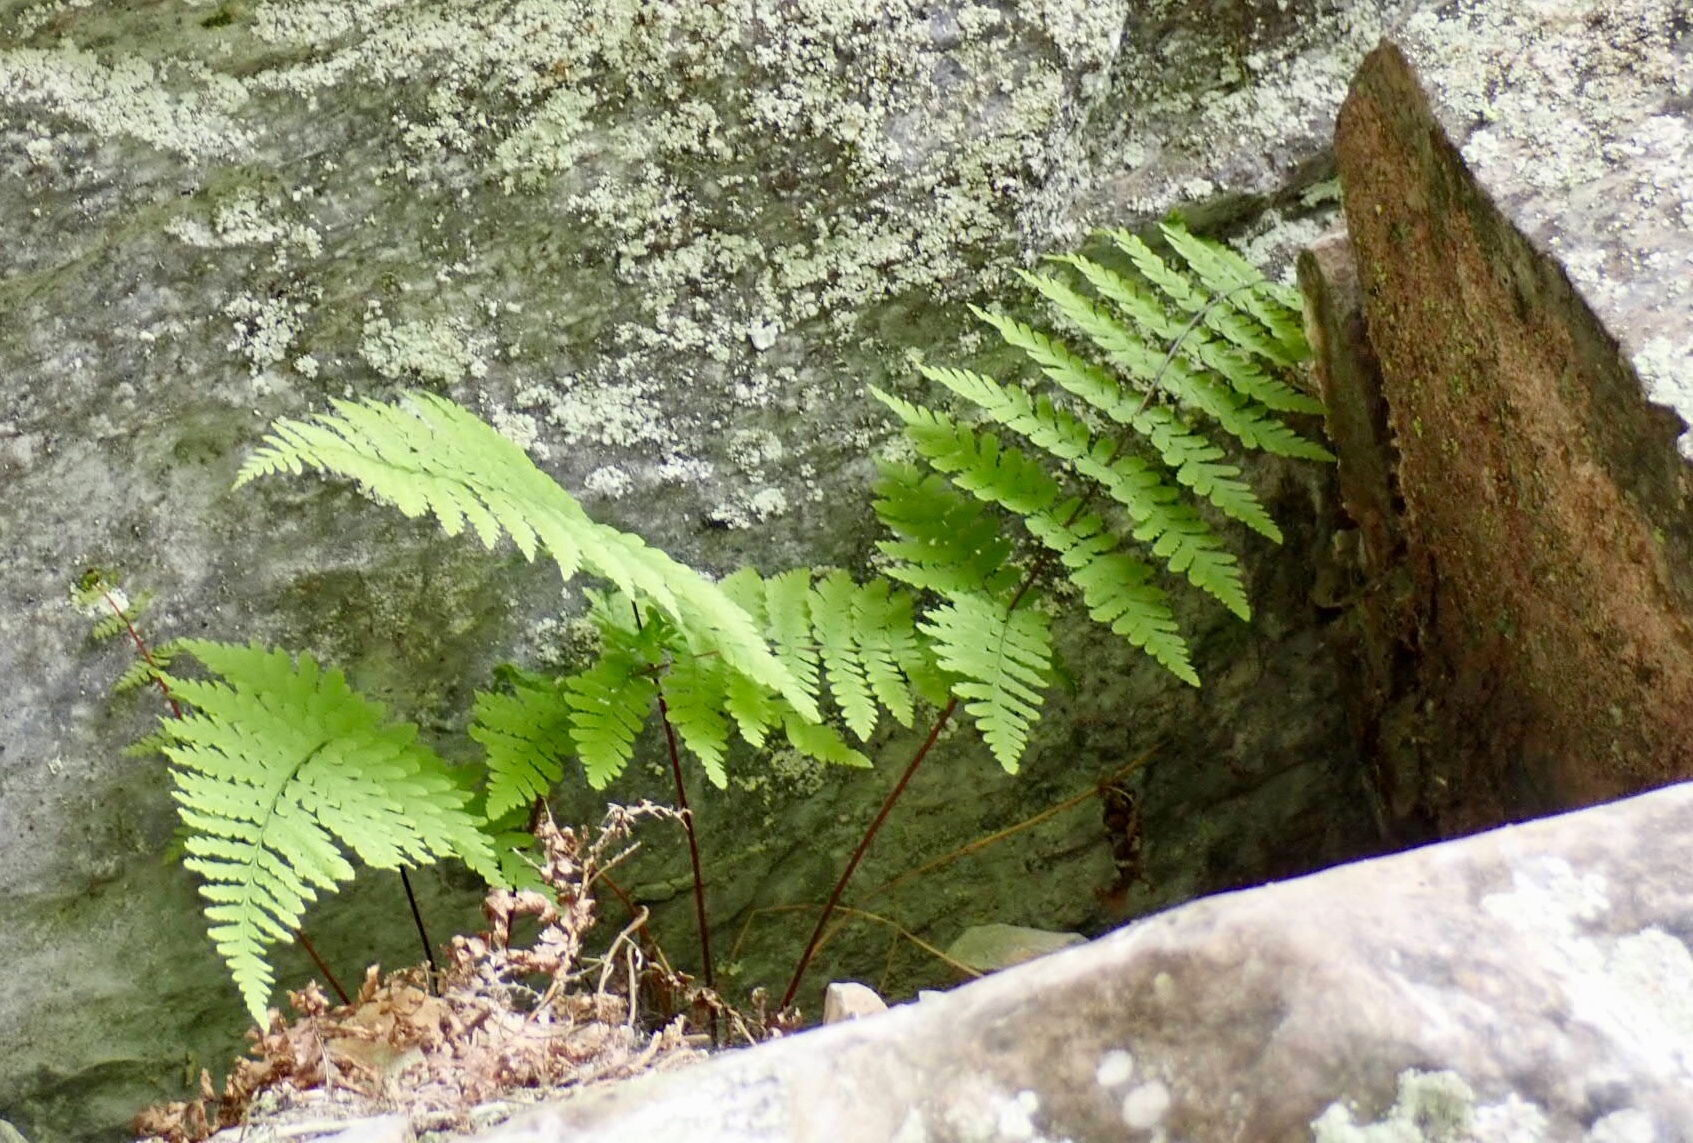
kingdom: Plantae
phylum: Tracheophyta
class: Polypodiopsida
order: Polypodiales
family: Cystopteridaceae
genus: Cystopteris
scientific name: Cystopteris bulbifera
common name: Bulblet bladder fern
